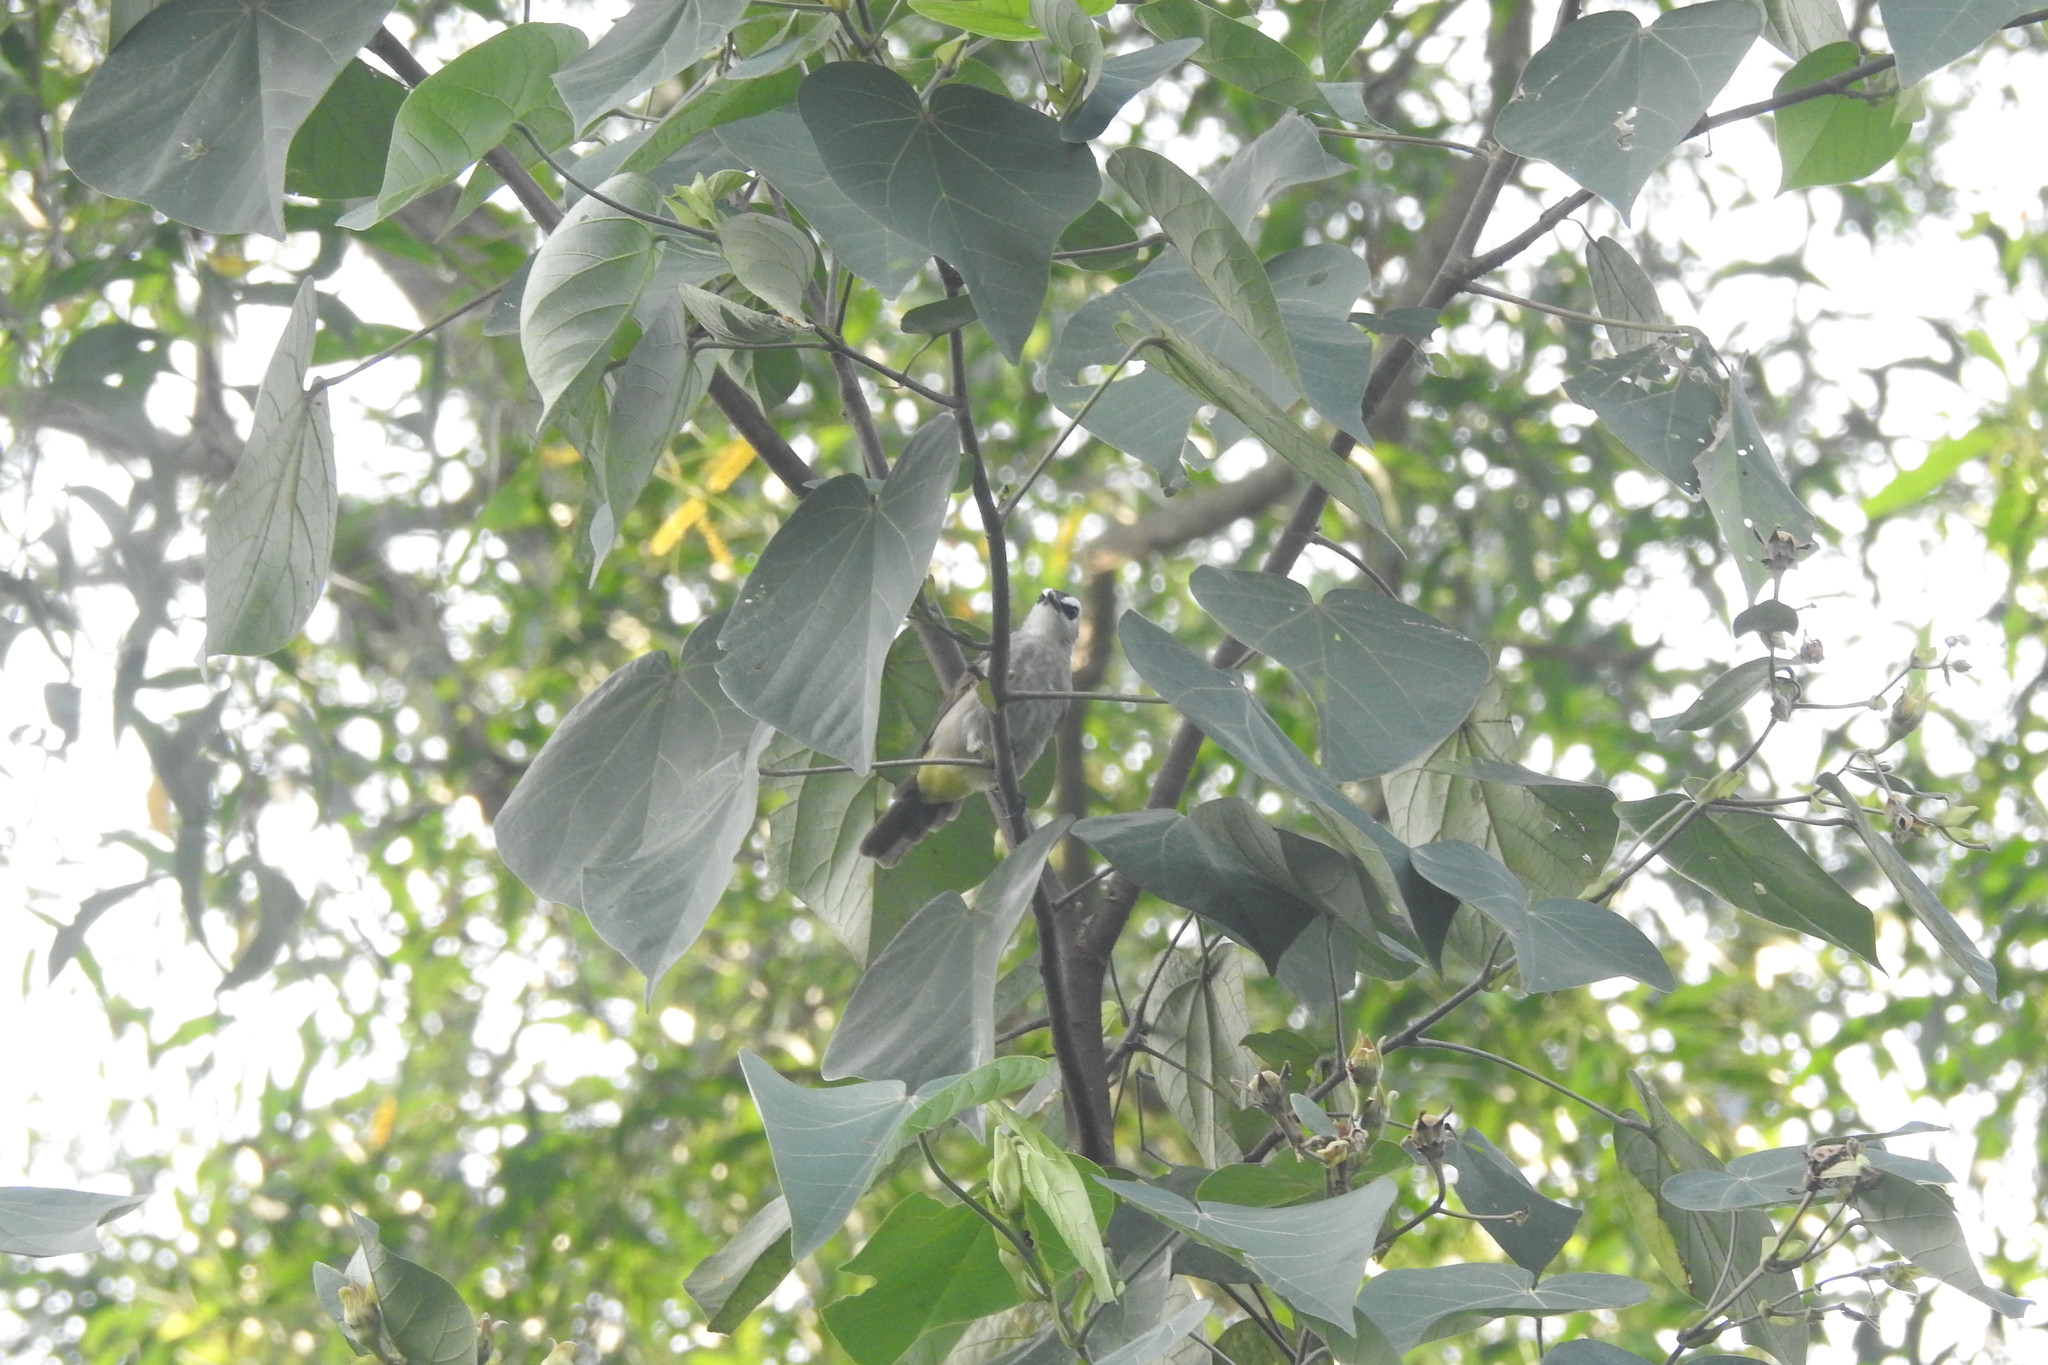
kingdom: Animalia
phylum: Chordata
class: Aves
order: Passeriformes
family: Pycnonotidae
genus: Pycnonotus
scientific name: Pycnonotus goiavier
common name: Yellow-vented bulbul
